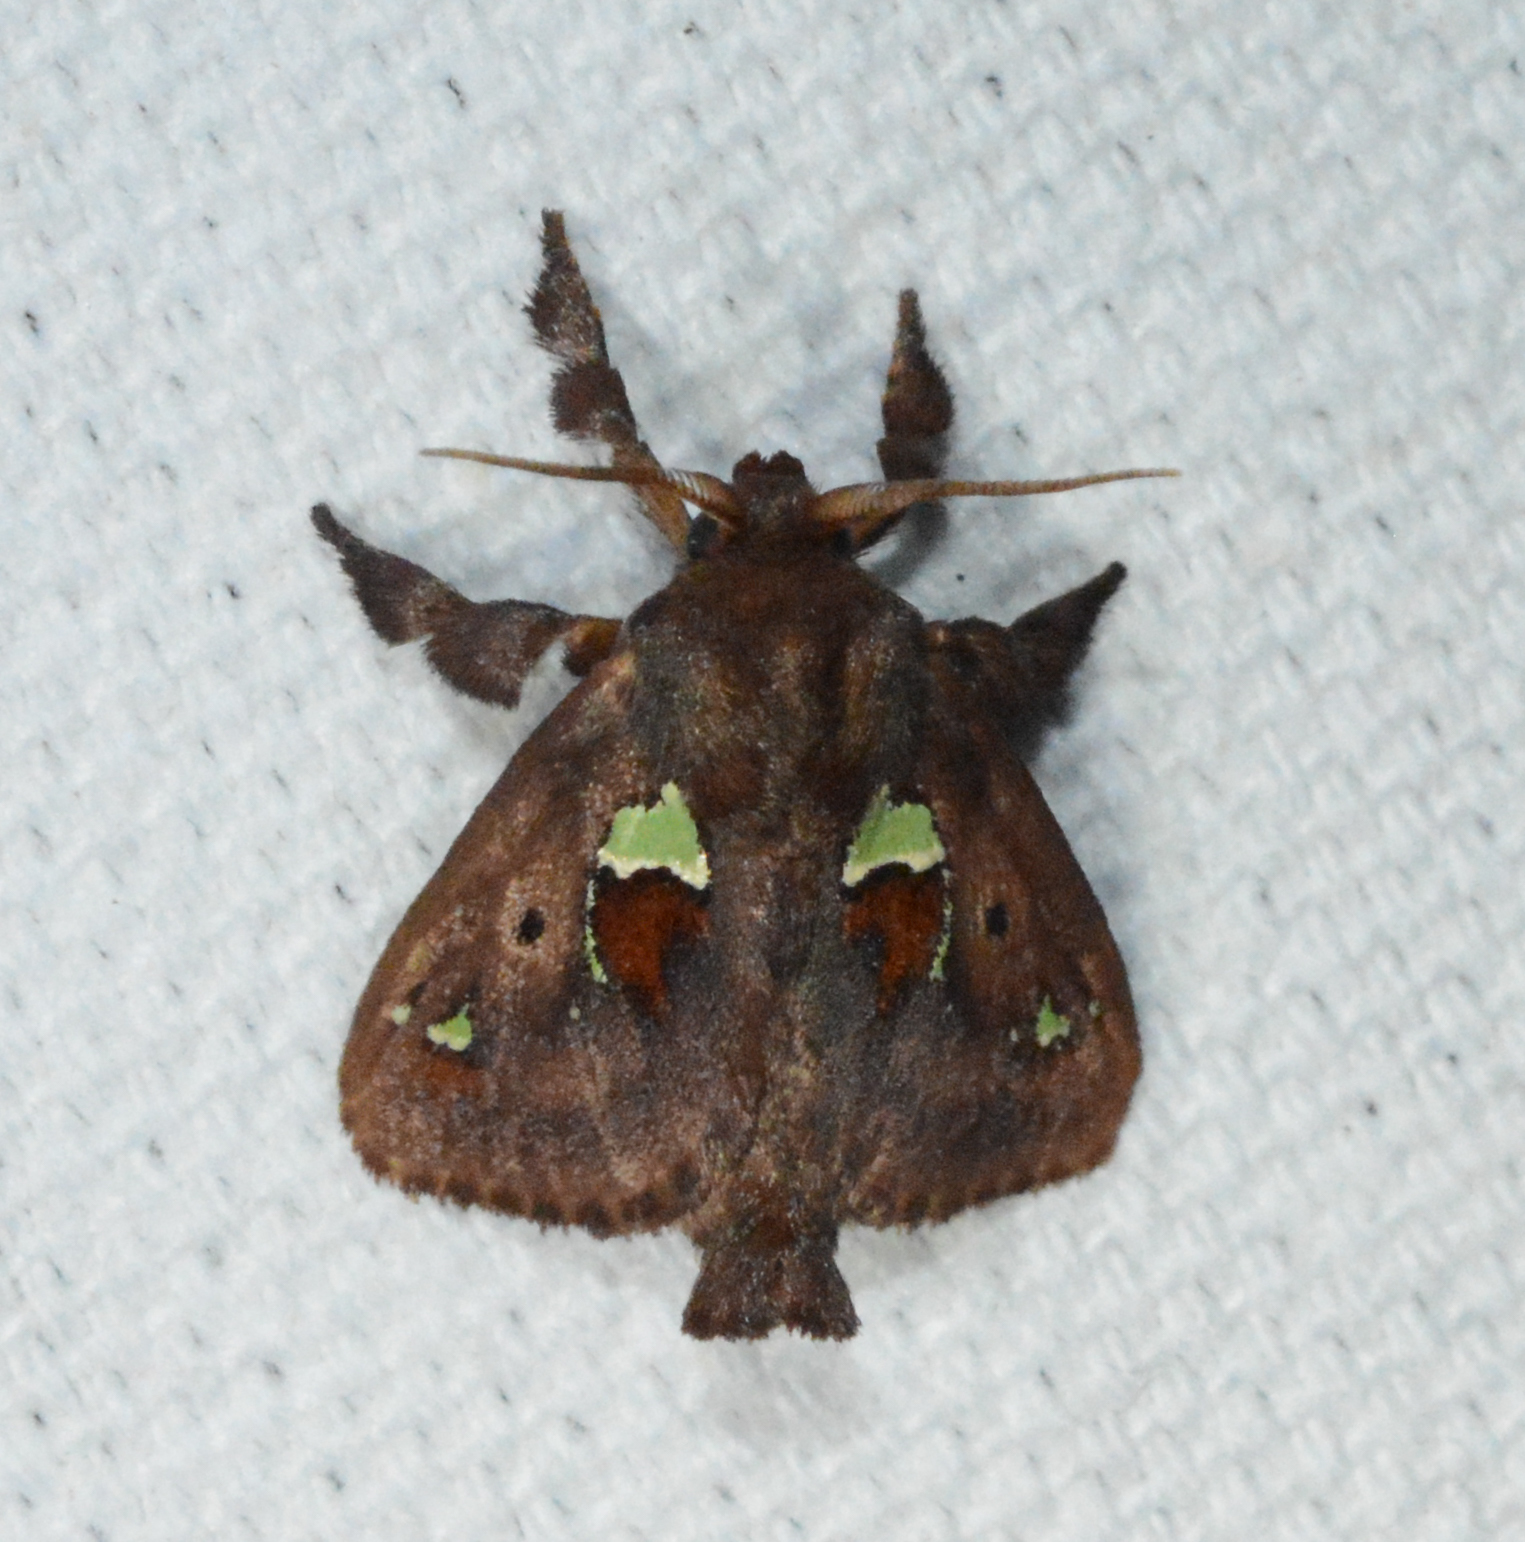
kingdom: Animalia
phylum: Arthropoda
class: Insecta
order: Lepidoptera
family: Limacodidae
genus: Euclea
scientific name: Euclea delphinii
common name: Spiny oak-slug moth
